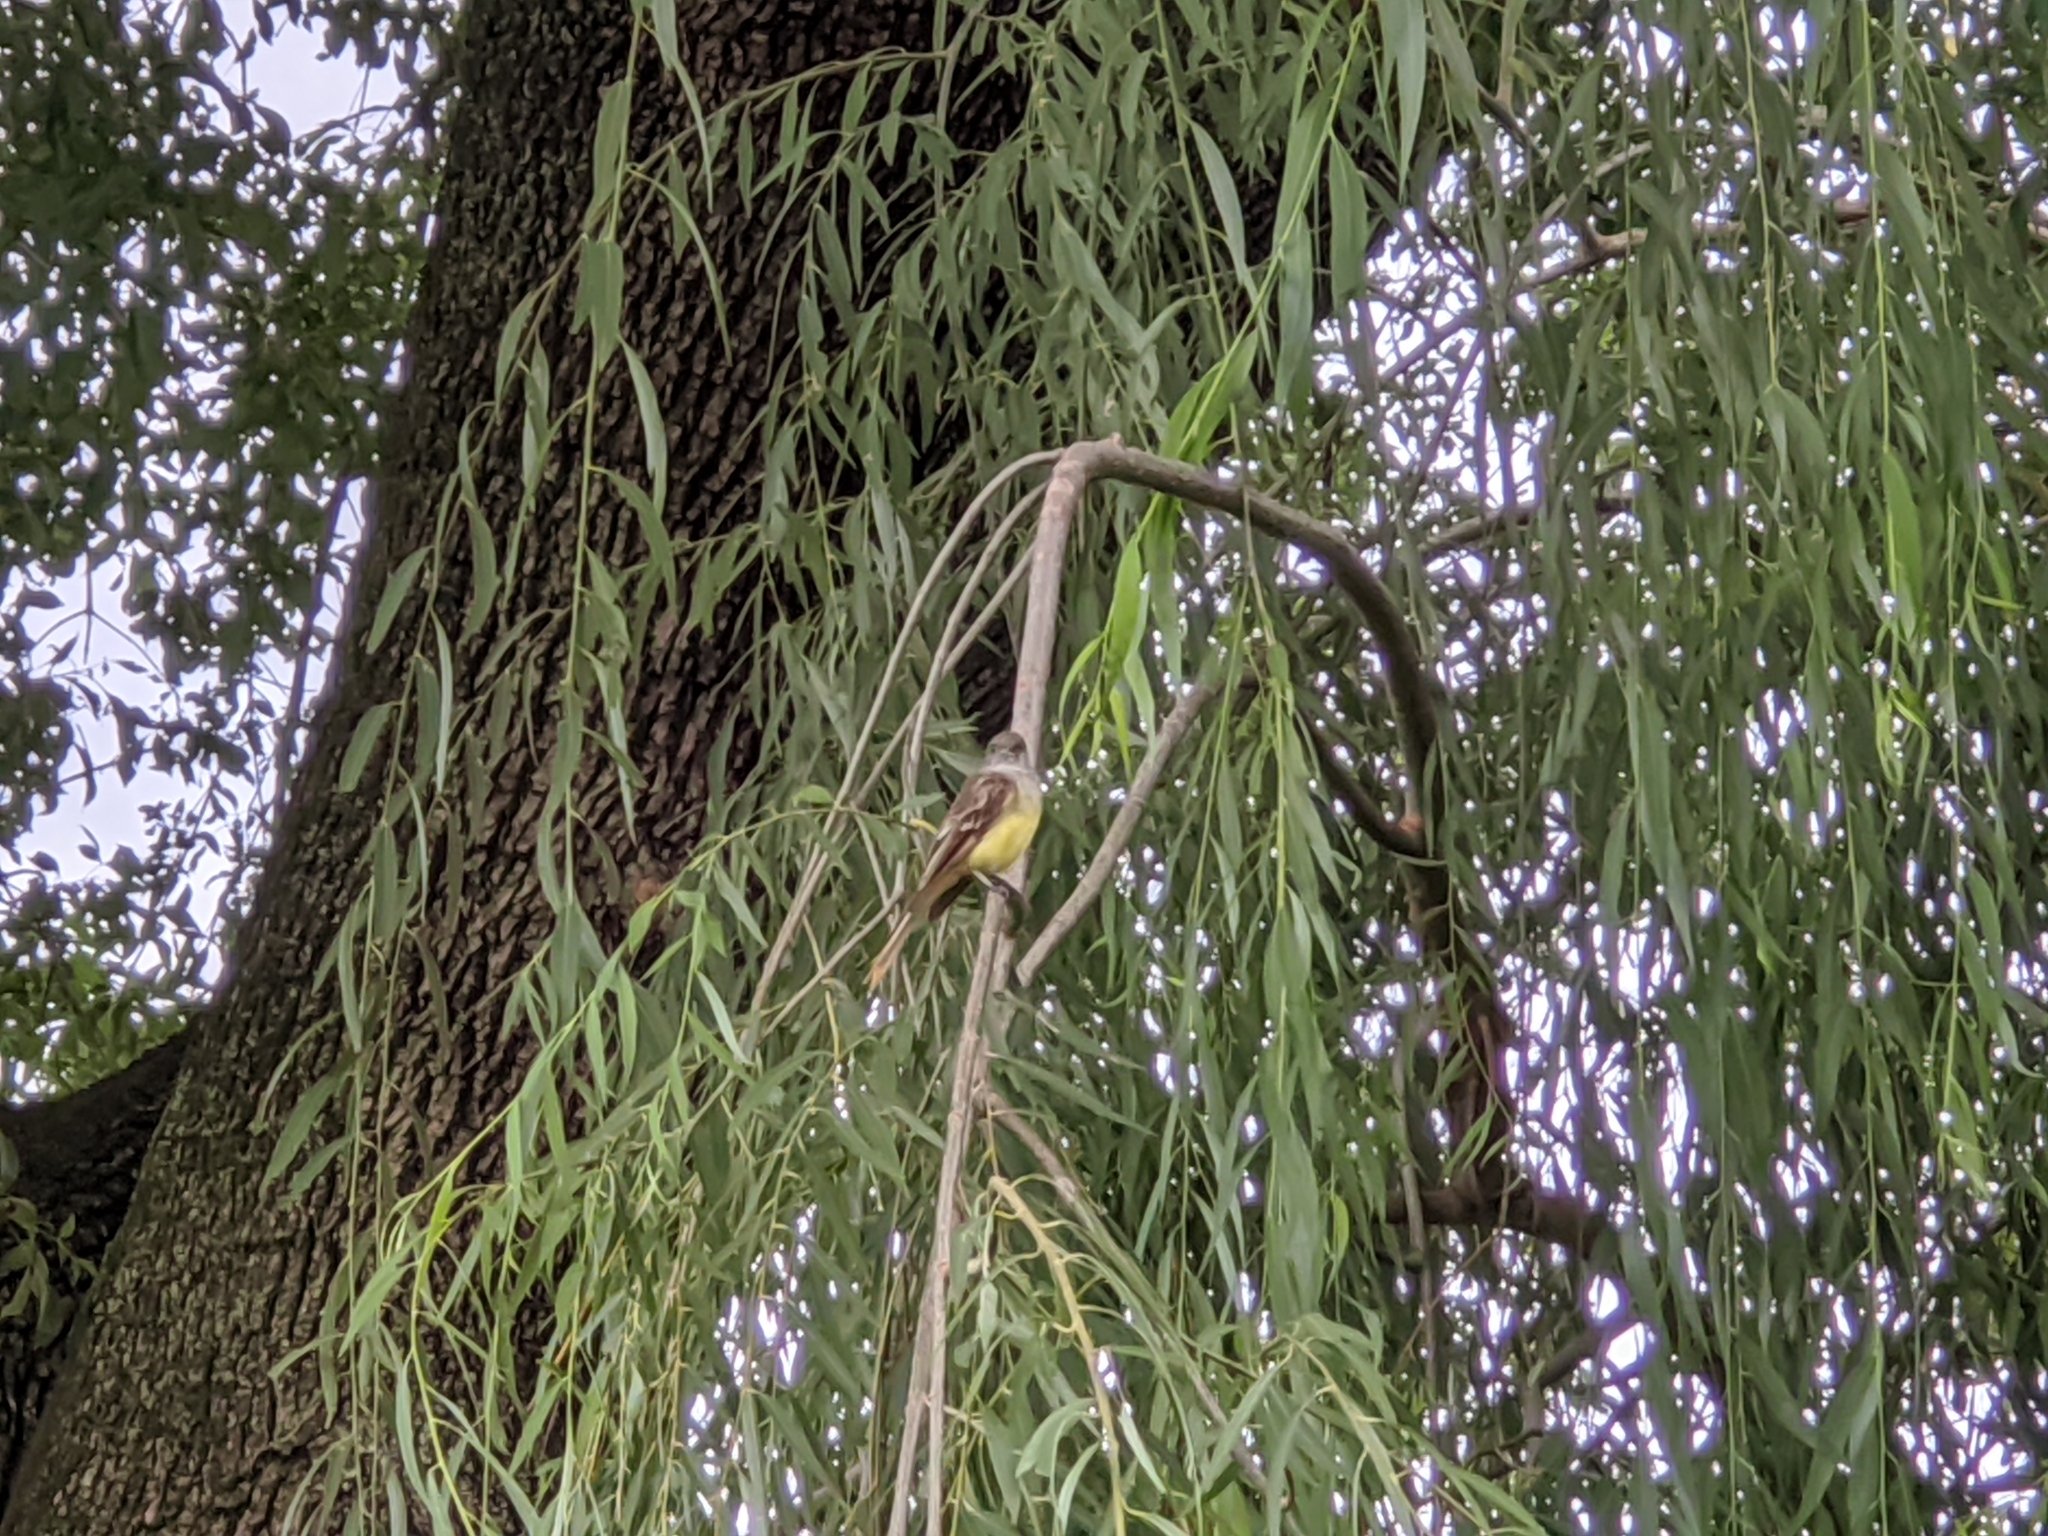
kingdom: Animalia
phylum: Chordata
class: Aves
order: Passeriformes
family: Tyrannidae
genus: Myiarchus
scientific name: Myiarchus crinitus
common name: Great crested flycatcher
